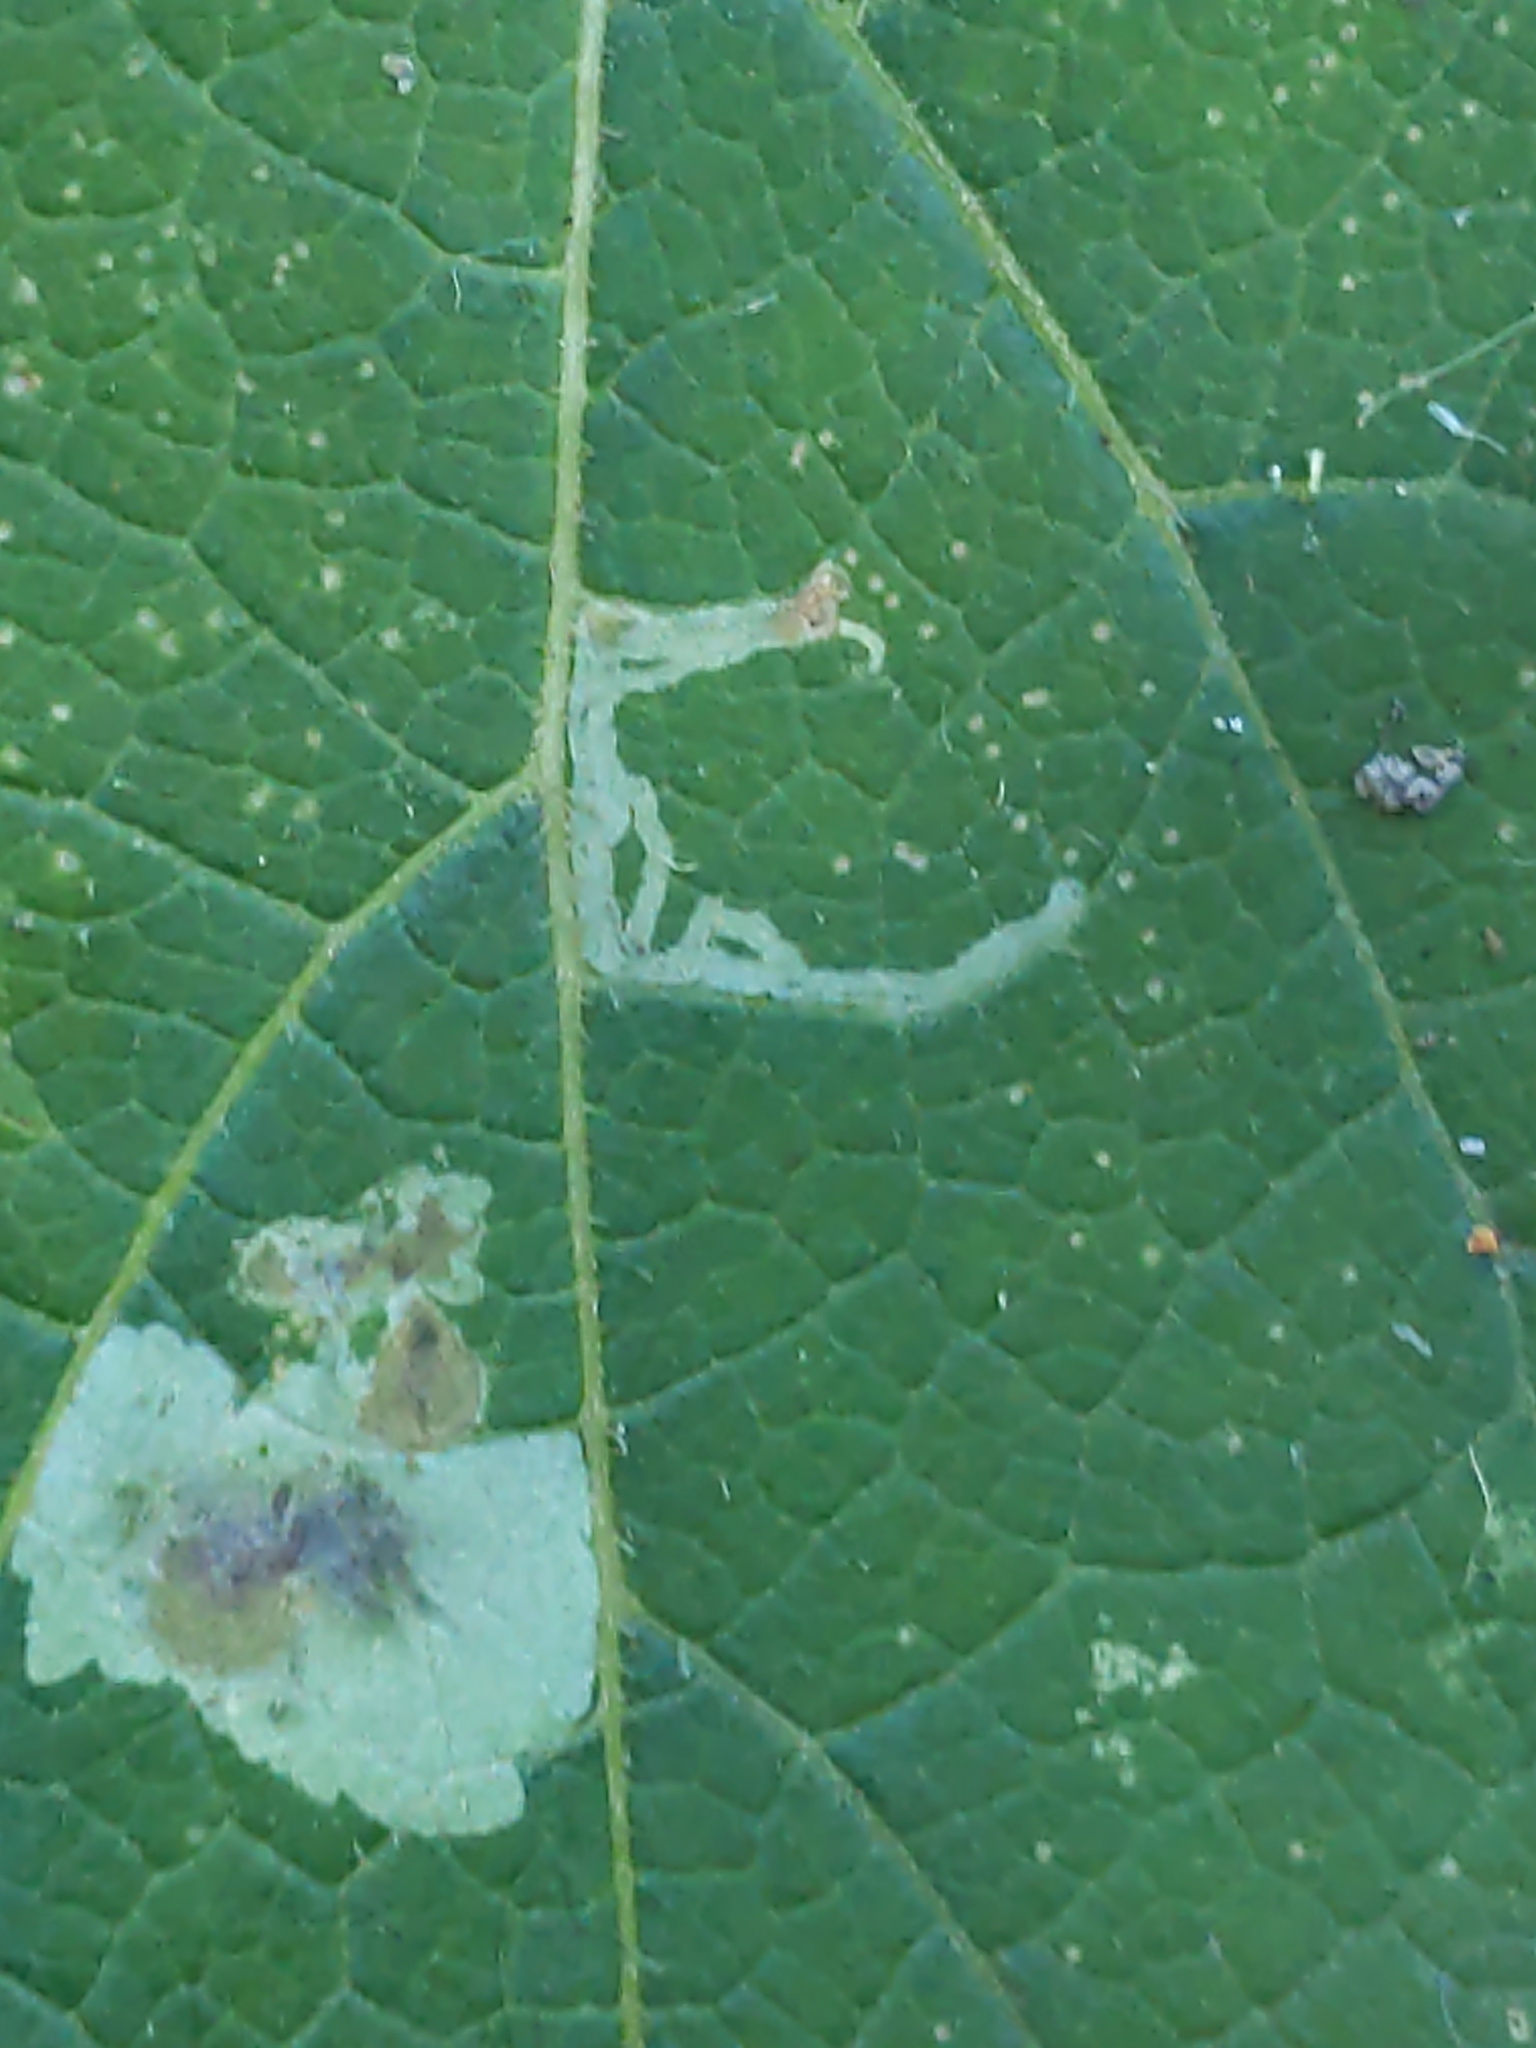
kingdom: Animalia
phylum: Arthropoda
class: Insecta
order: Diptera
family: Agromyzidae
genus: Liriomyza
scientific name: Liriomyza arctii
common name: Burdock leafminer
